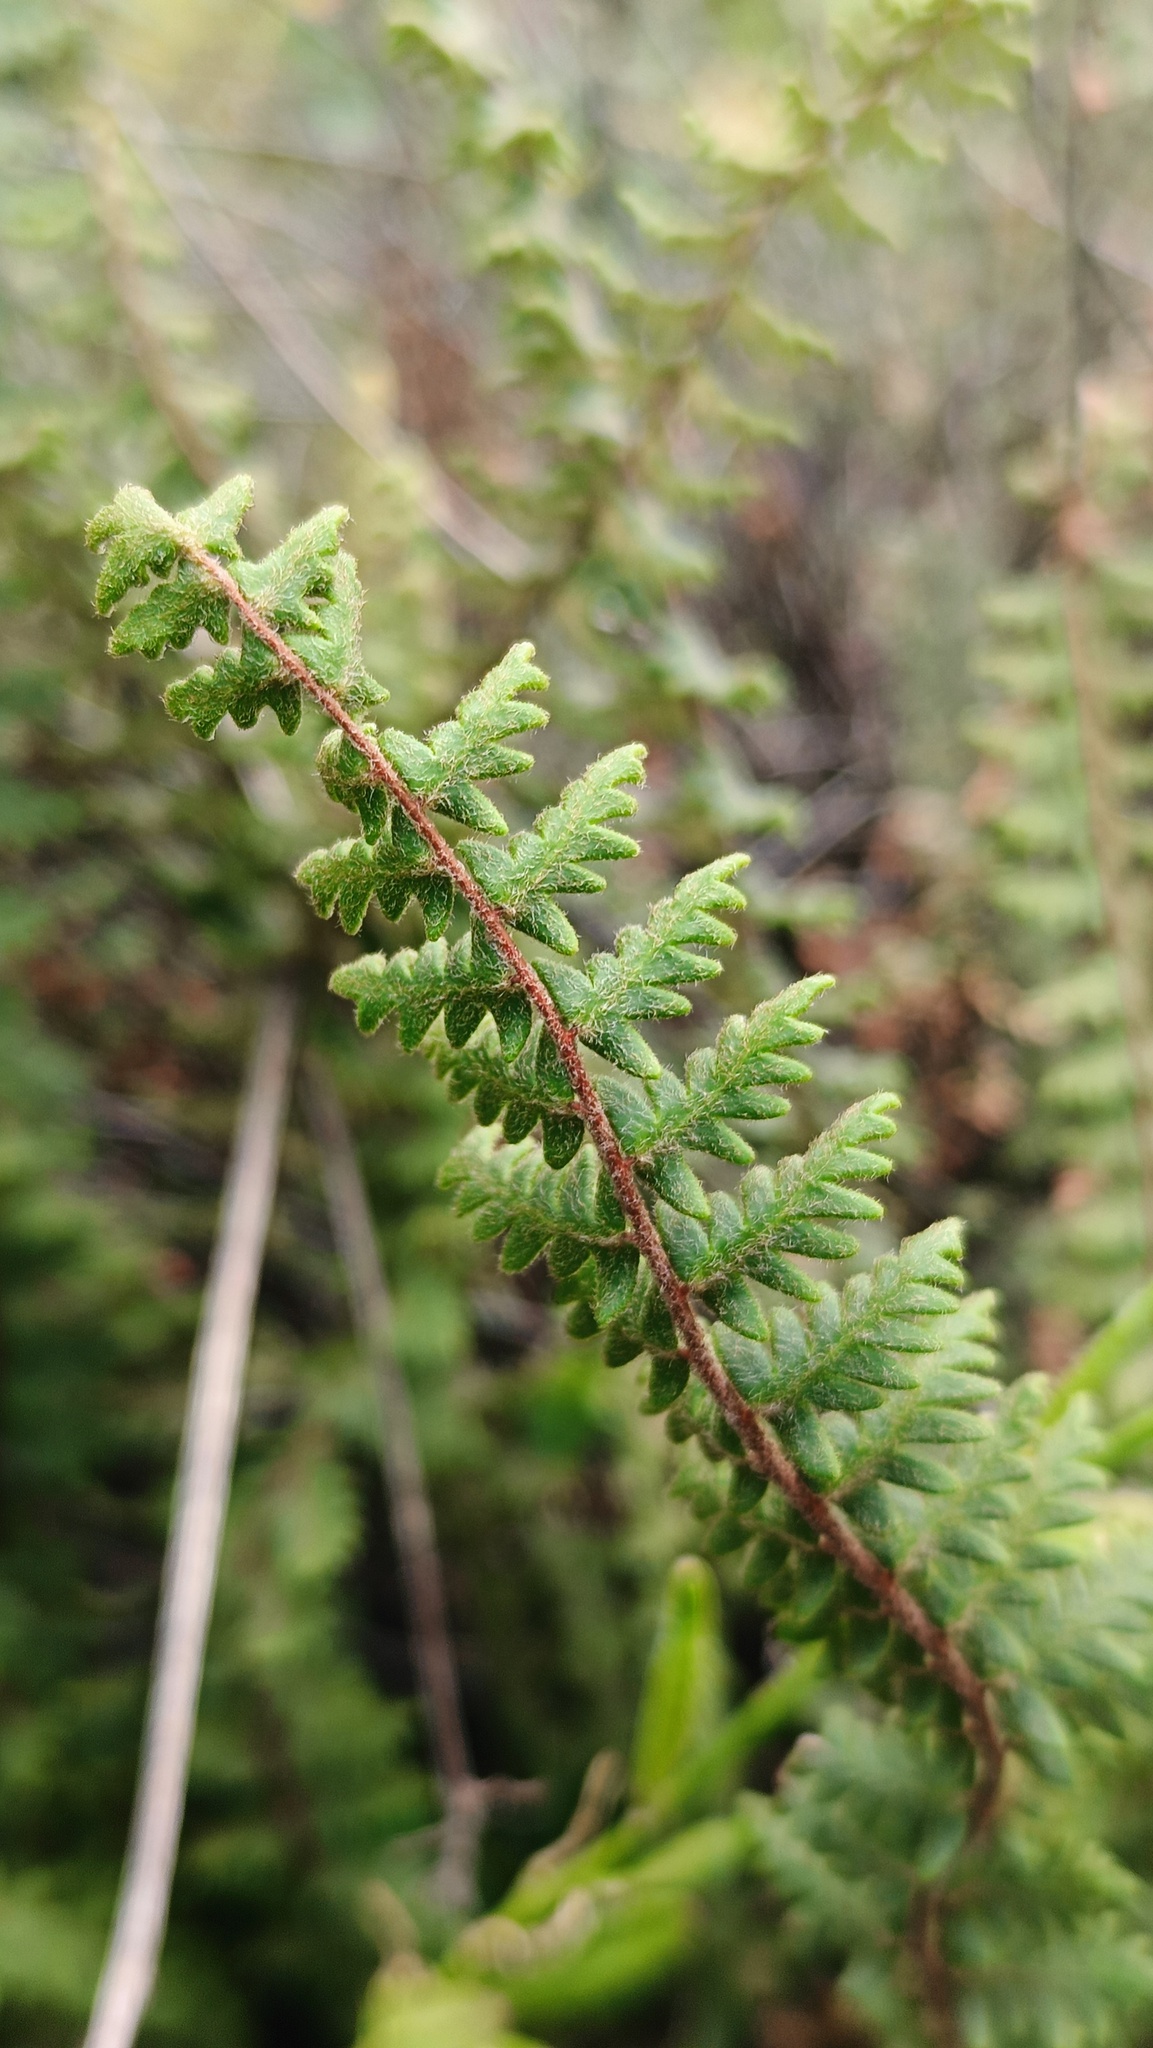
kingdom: Plantae
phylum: Tracheophyta
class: Polypodiopsida
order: Polypodiales
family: Pteridaceae
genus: Myriopteris
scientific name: Myriopteris aurea
